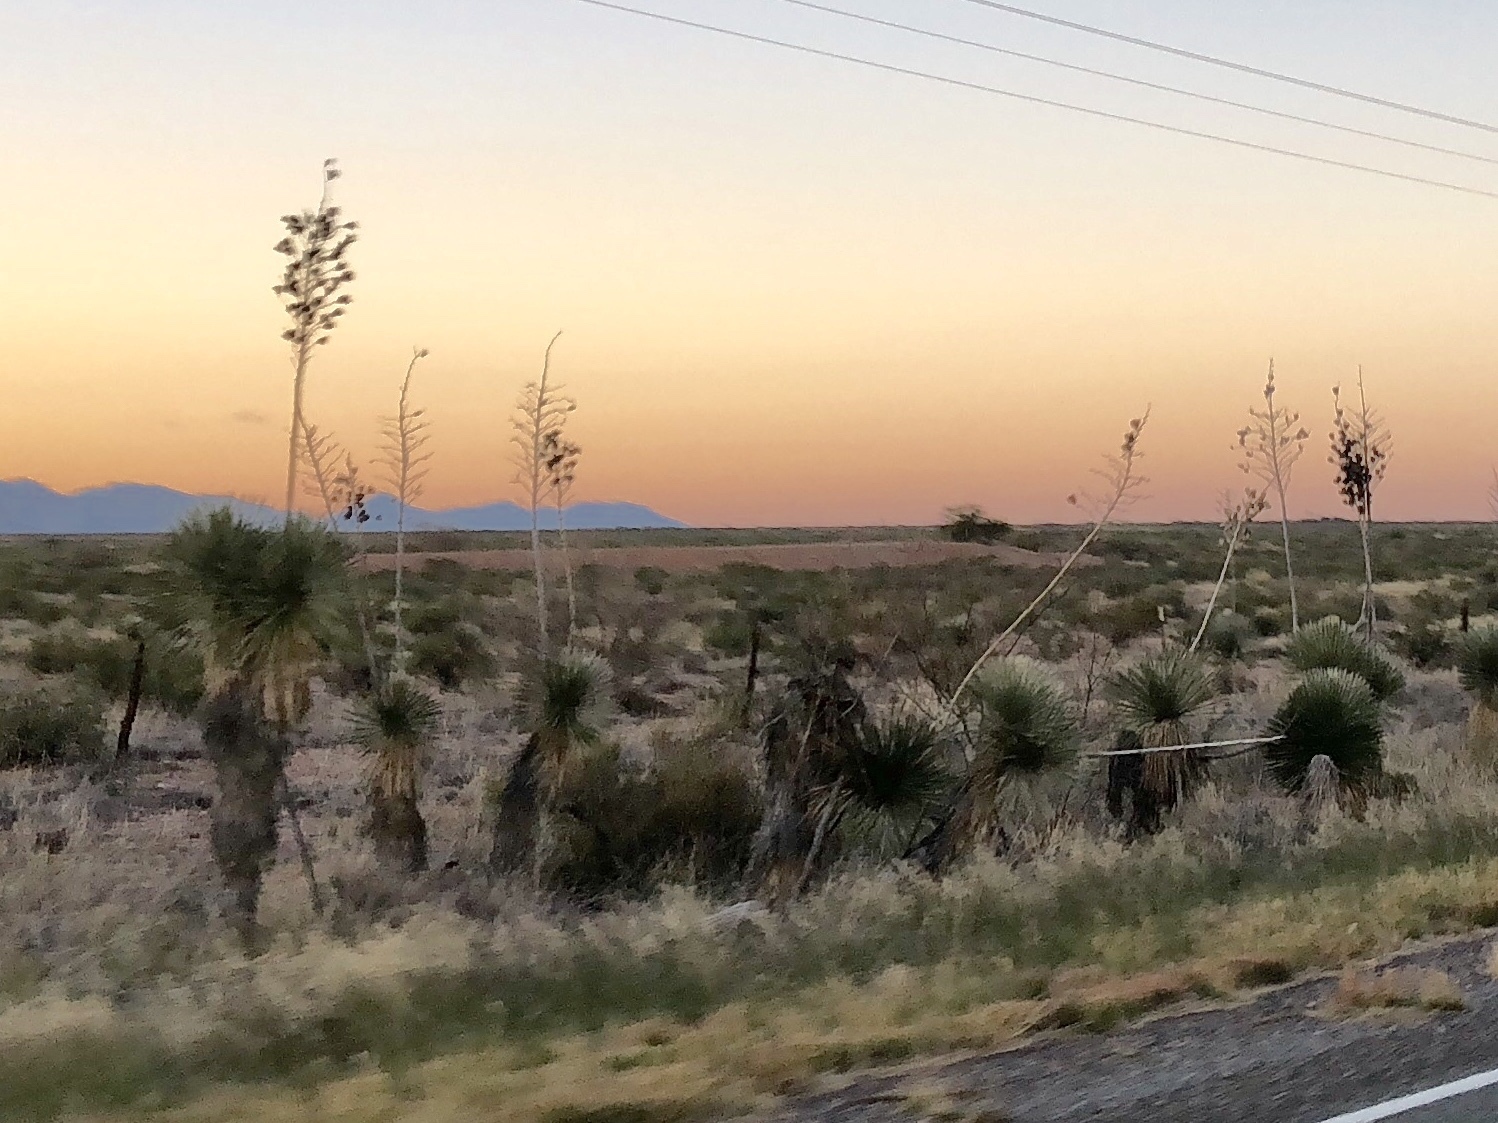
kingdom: Plantae
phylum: Tracheophyta
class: Liliopsida
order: Asparagales
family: Asparagaceae
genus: Yucca
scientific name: Yucca elata
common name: Palmella
